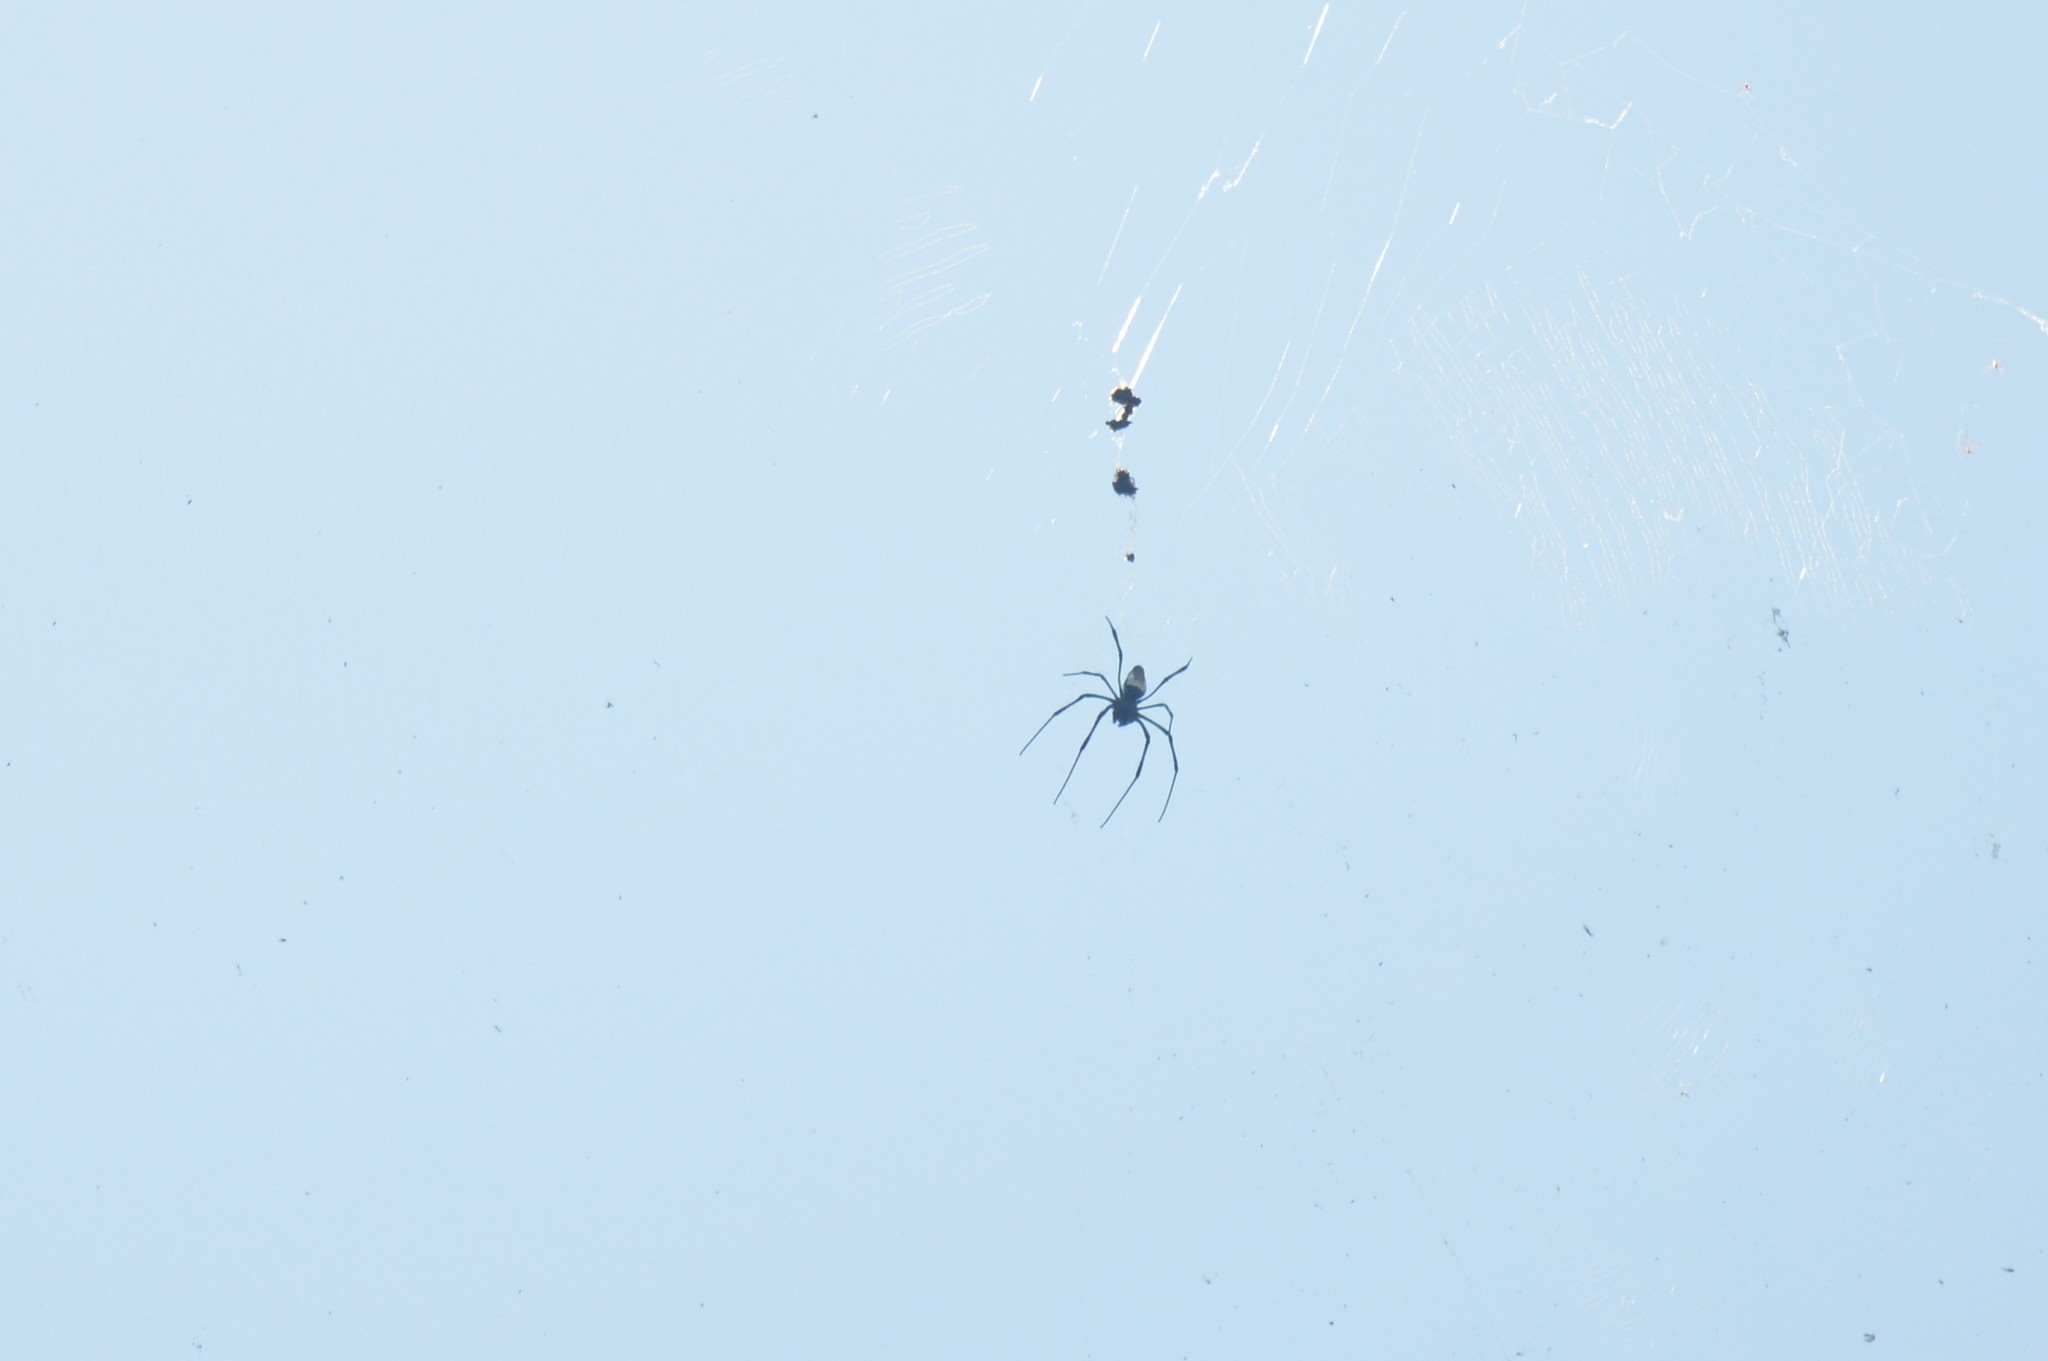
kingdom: Animalia
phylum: Arthropoda
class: Arachnida
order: Araneae
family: Araneidae
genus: Trichonephila
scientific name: Trichonephila inaurata
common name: Red-legged golden orb weaver
